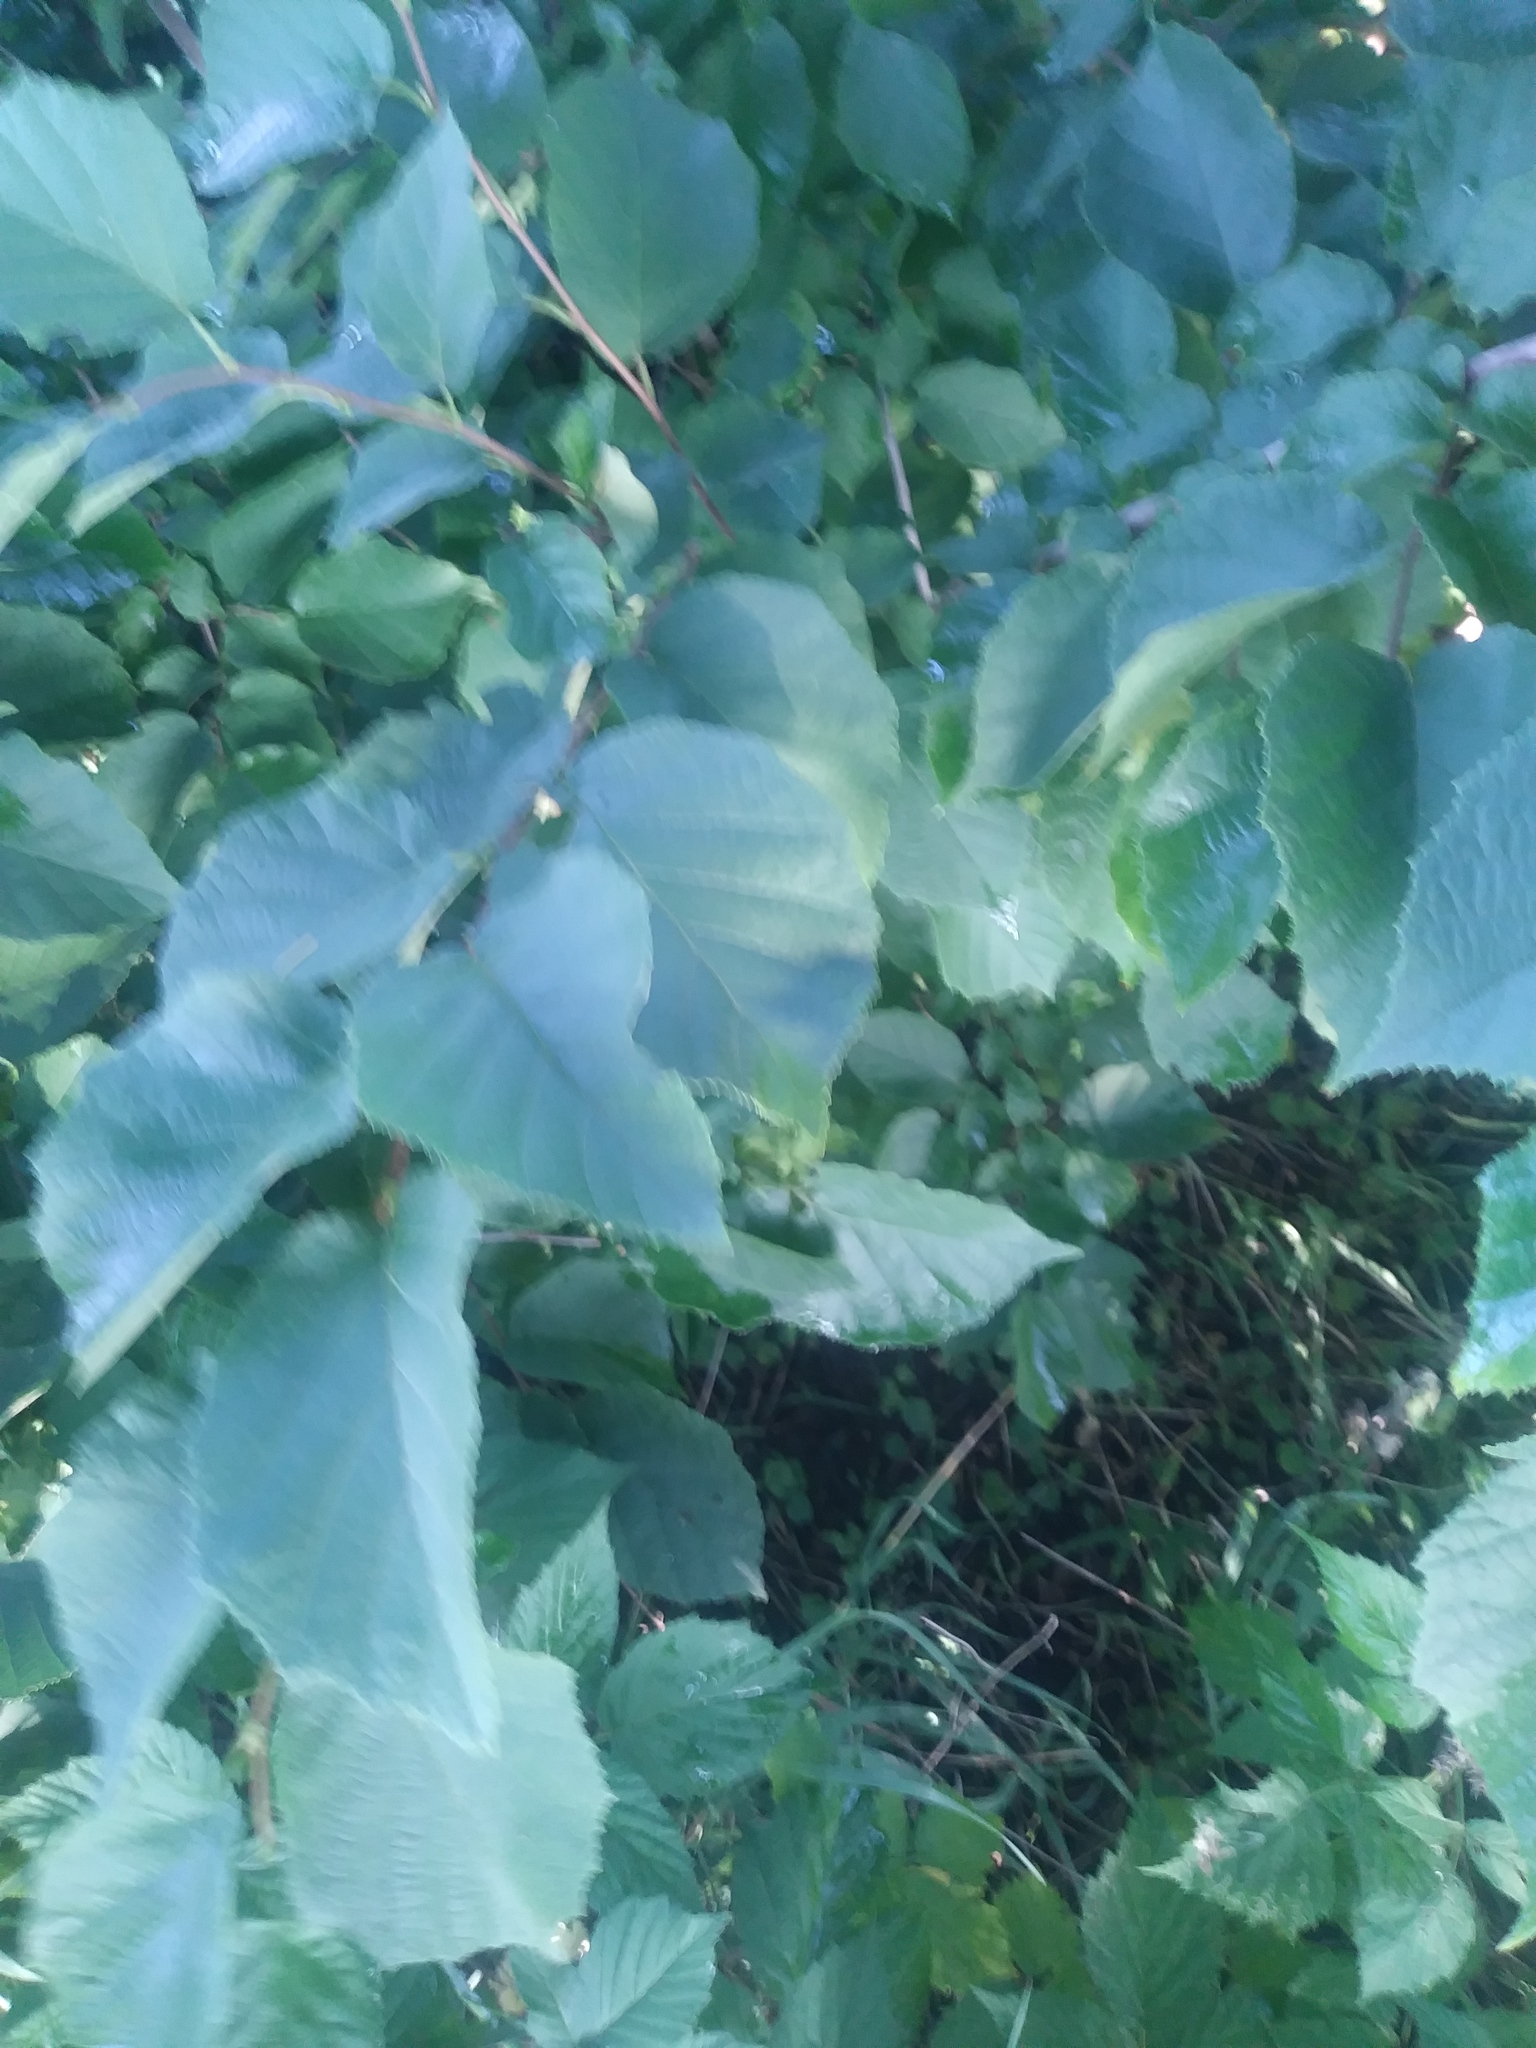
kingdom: Plantae
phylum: Tracheophyta
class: Magnoliopsida
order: Fagales
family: Betulaceae
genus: Corylus
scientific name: Corylus americana
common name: American hazel
